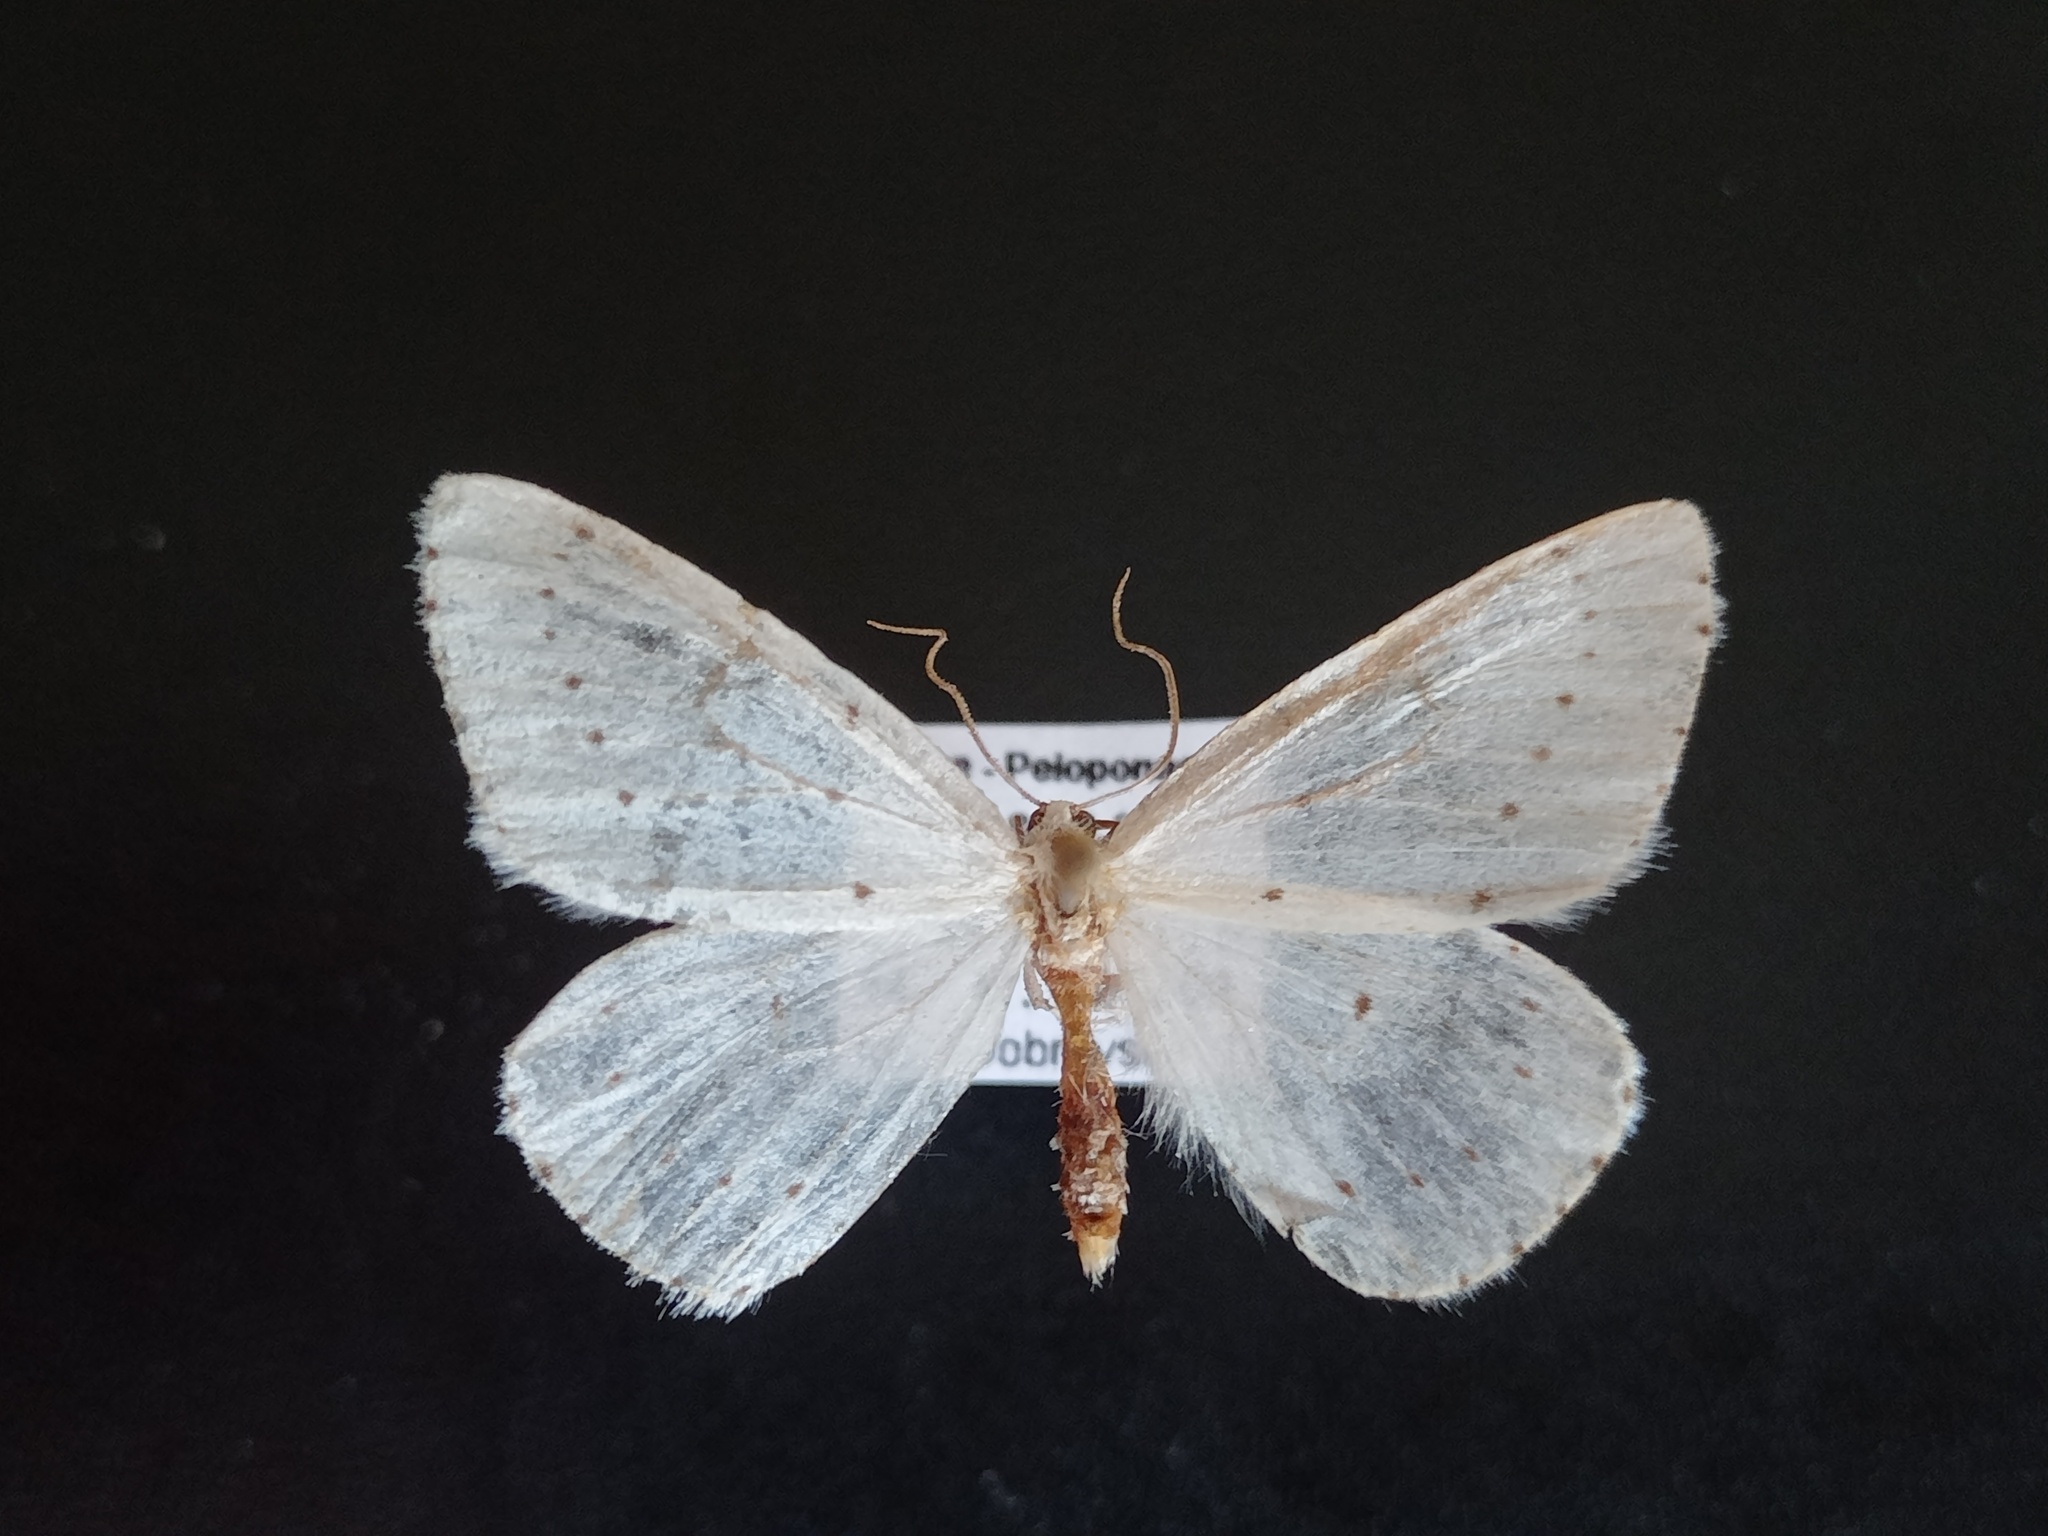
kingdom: Animalia
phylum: Arthropoda
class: Insecta
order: Lepidoptera
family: Geometridae
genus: Orthostixis
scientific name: Orthostixis cribraria
